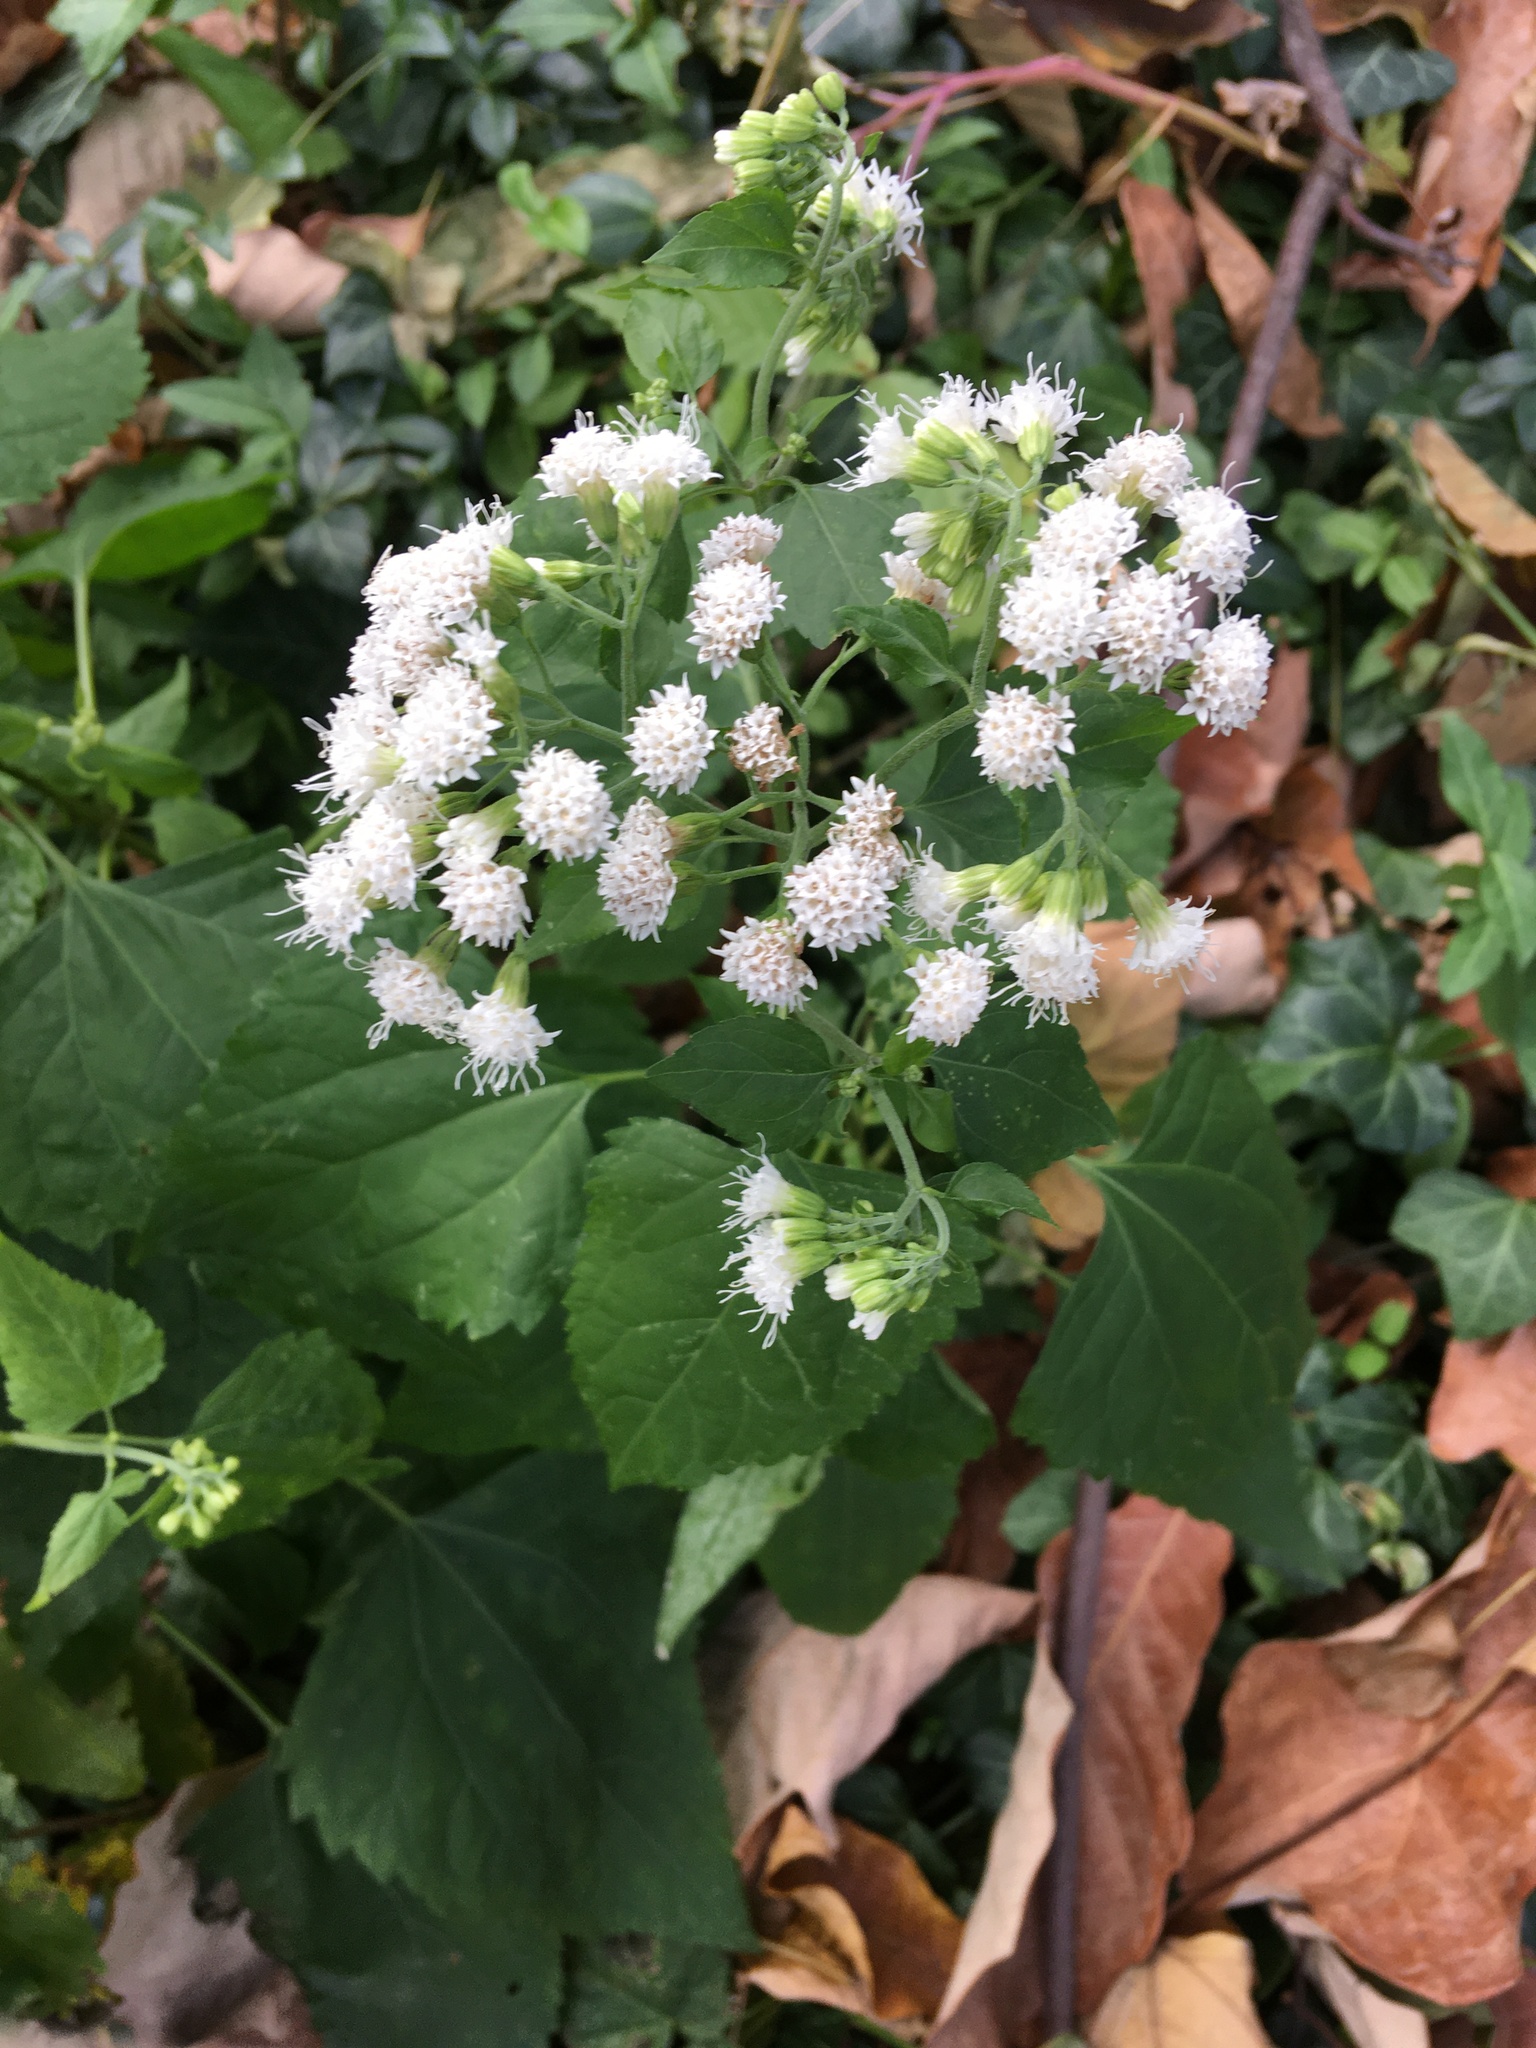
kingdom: Plantae
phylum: Tracheophyta
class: Magnoliopsida
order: Asterales
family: Asteraceae
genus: Ageratina
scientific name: Ageratina altissima
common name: White snakeroot
